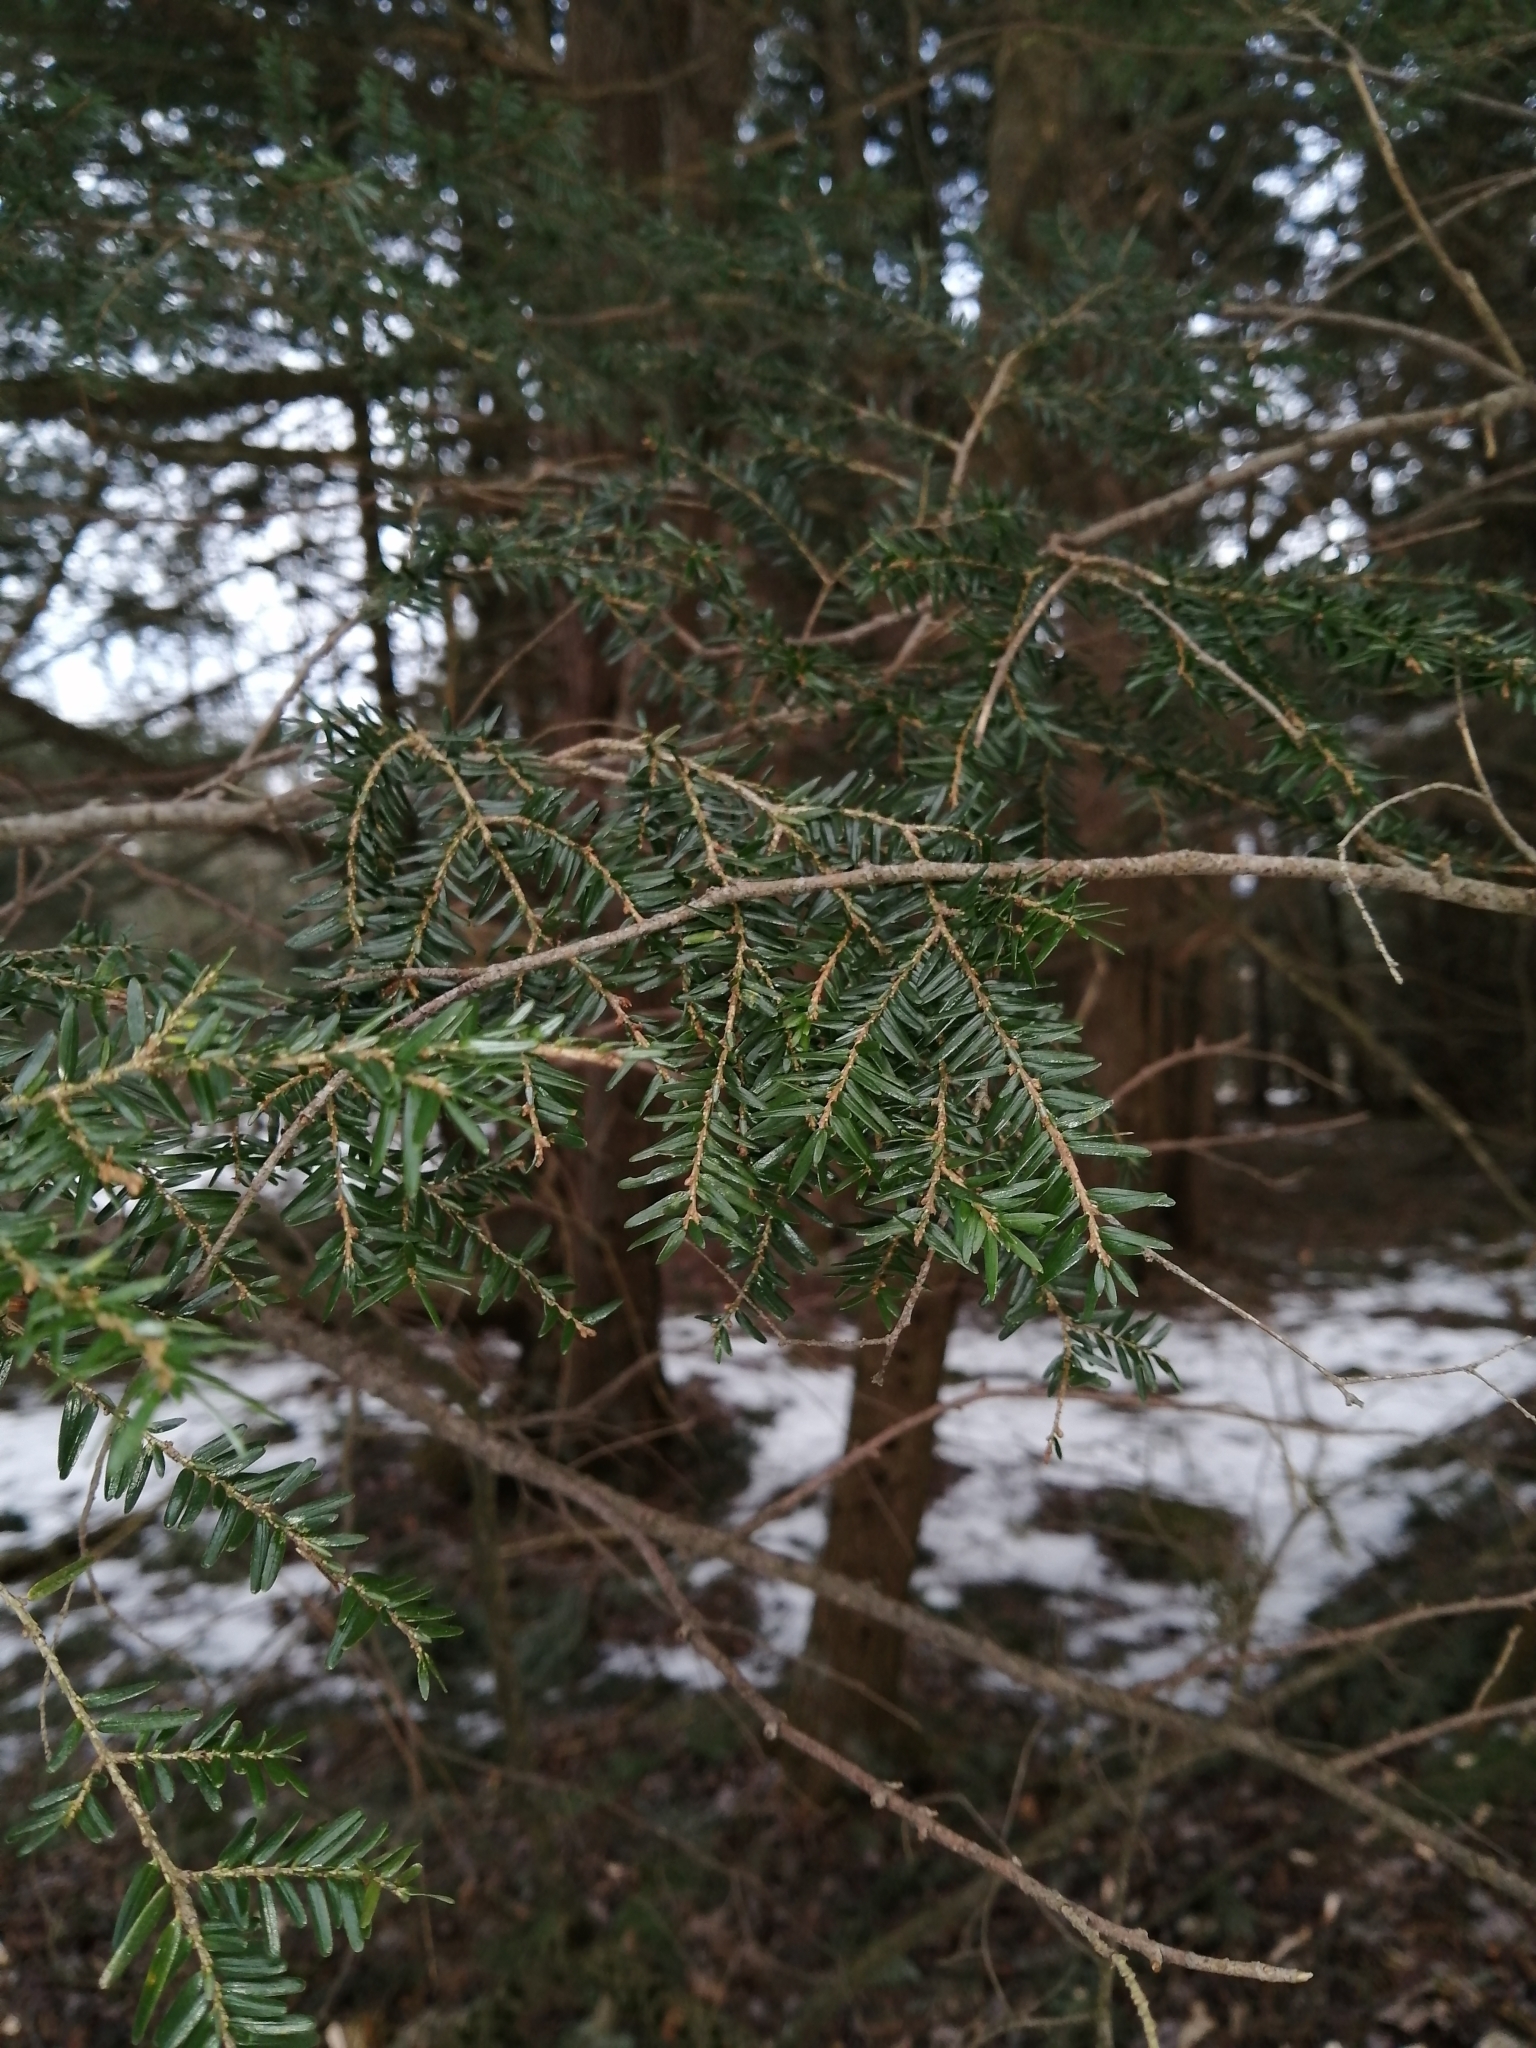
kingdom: Plantae
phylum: Tracheophyta
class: Pinopsida
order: Pinales
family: Pinaceae
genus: Tsuga
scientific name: Tsuga canadensis
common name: Eastern hemlock
